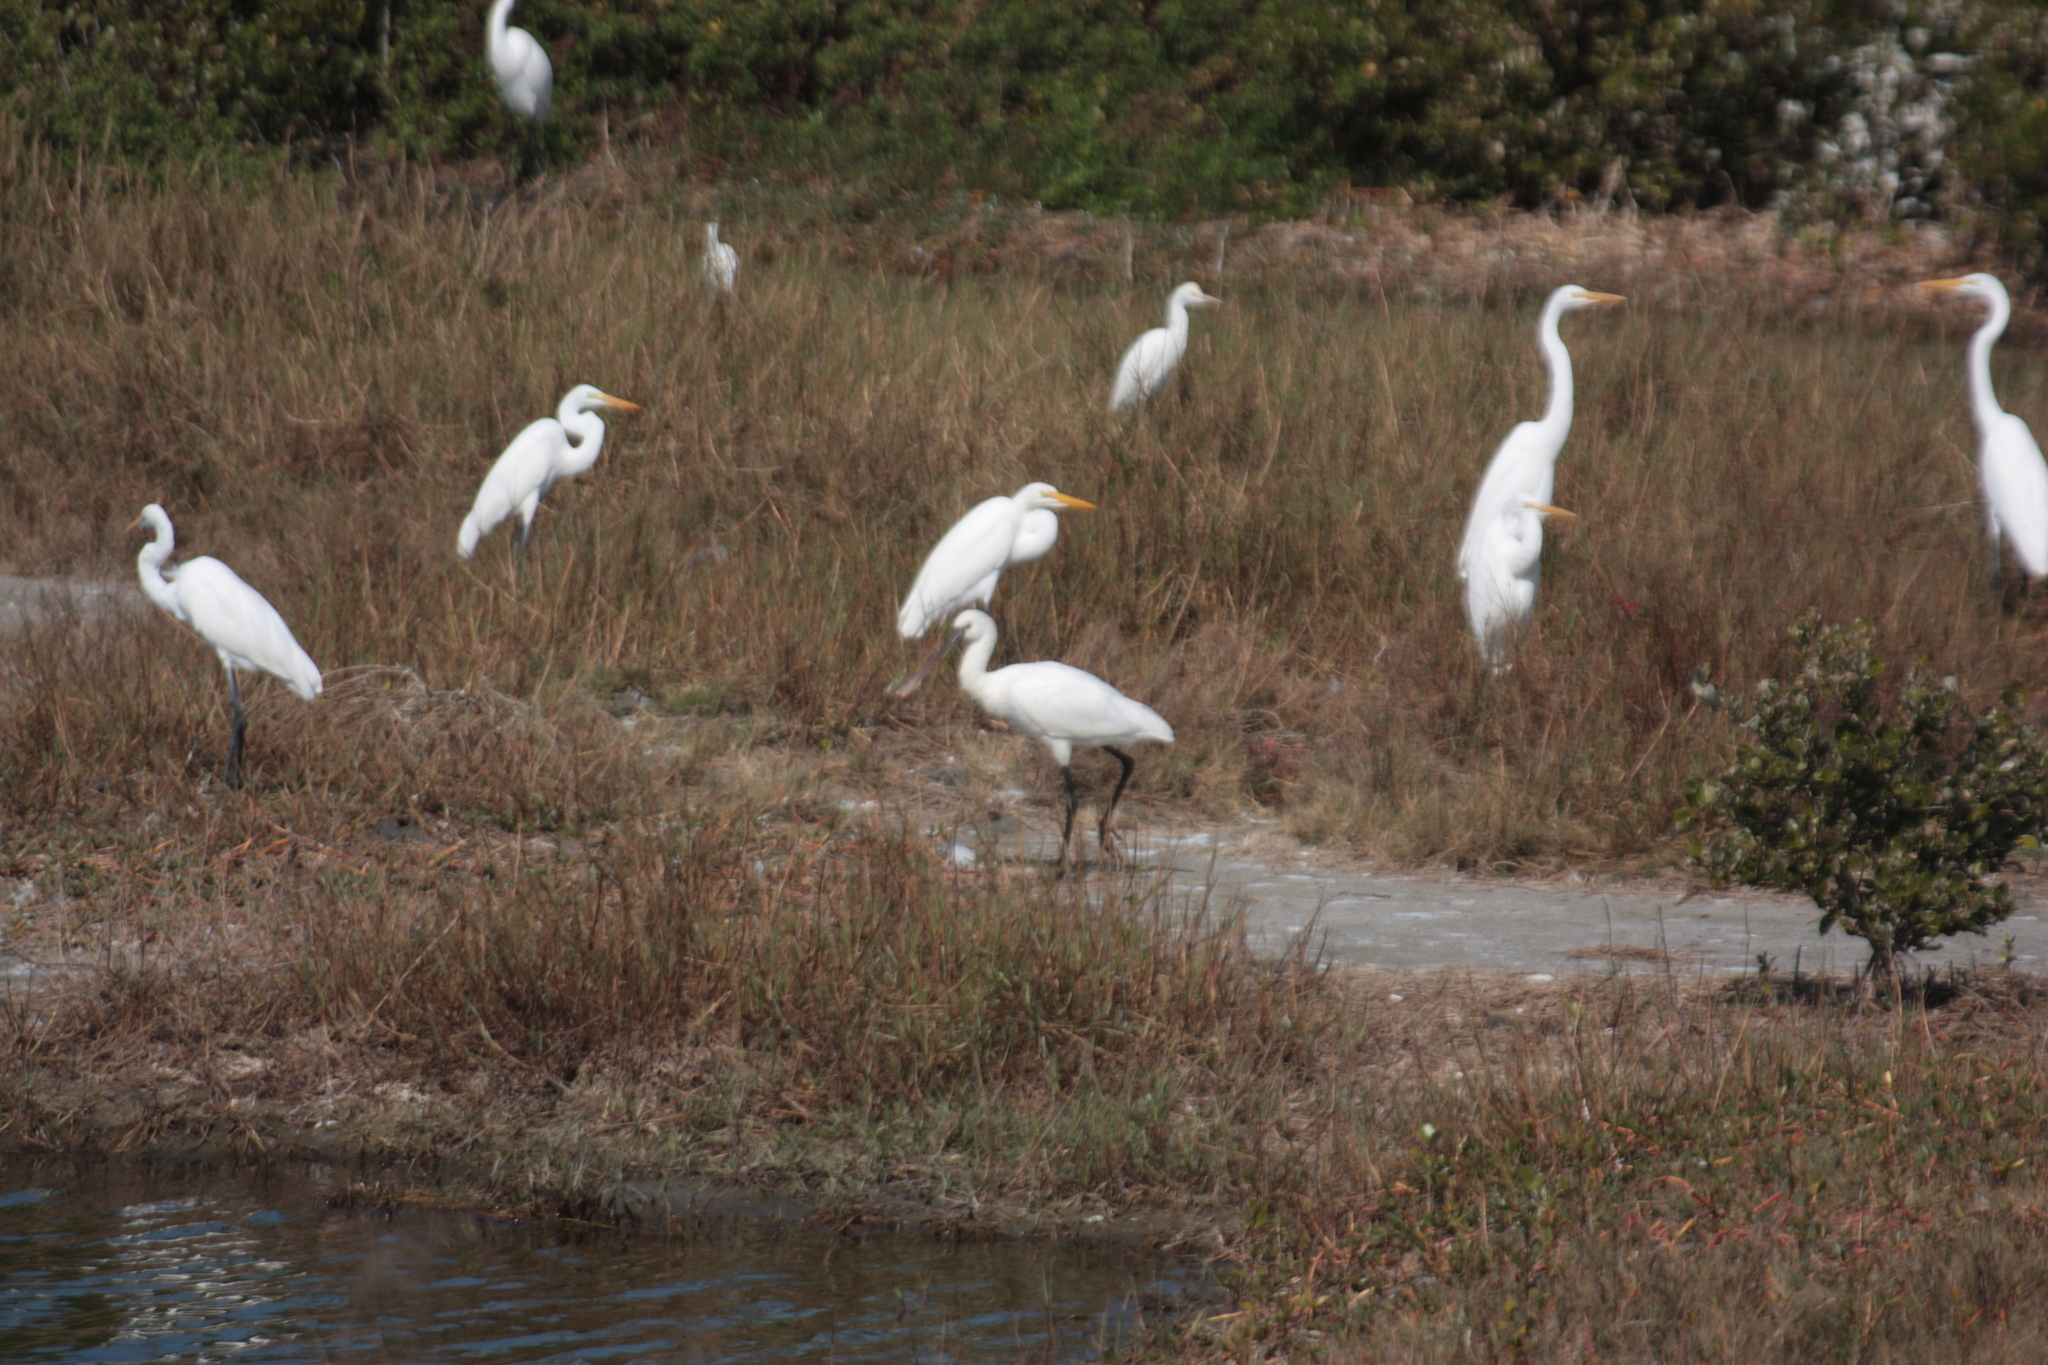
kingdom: Animalia
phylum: Chordata
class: Aves
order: Pelecaniformes
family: Threskiornithidae
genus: Platalea
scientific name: Platalea leucorodia
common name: Eurasian spoonbill
